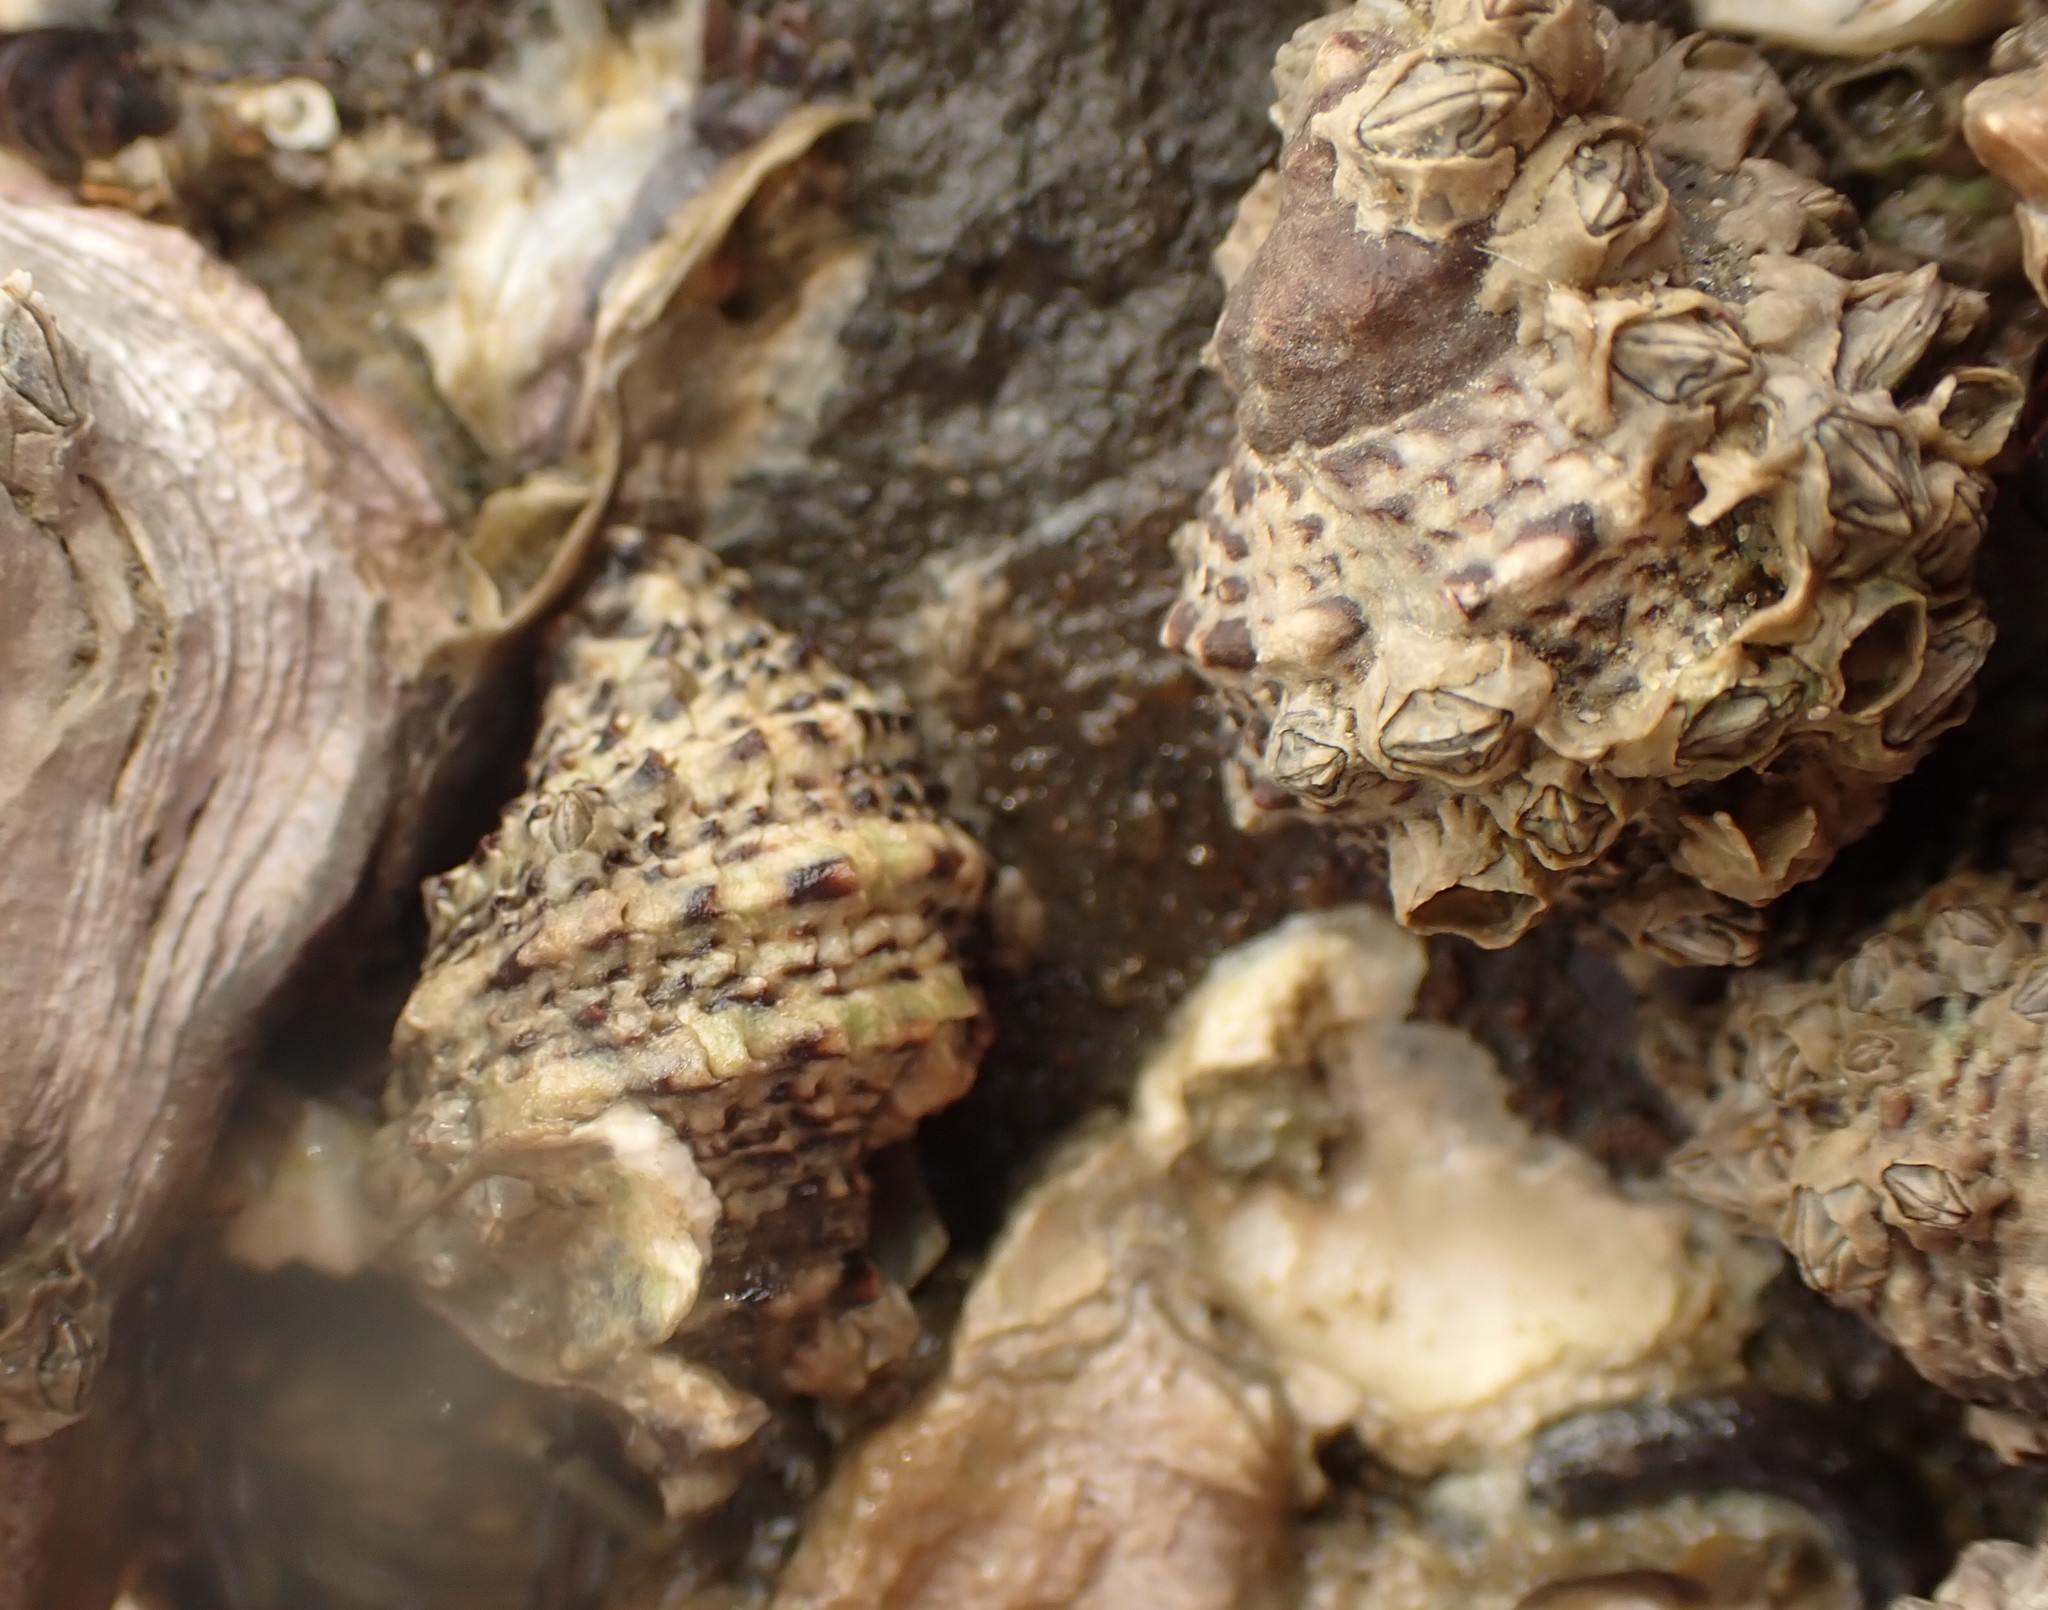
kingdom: Animalia
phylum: Mollusca
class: Gastropoda
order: Neogastropoda
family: Muricidae
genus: Haustrum
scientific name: Haustrum scobina
